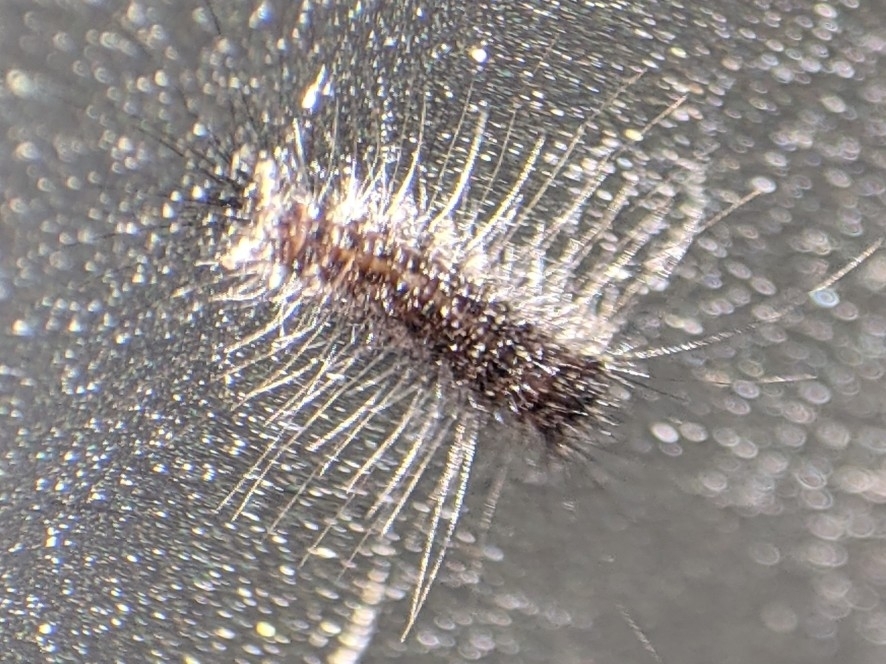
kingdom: Animalia
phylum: Arthropoda
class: Insecta
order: Lepidoptera
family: Erebidae
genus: Lymantria
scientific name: Lymantria dispar
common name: Gypsy moth
